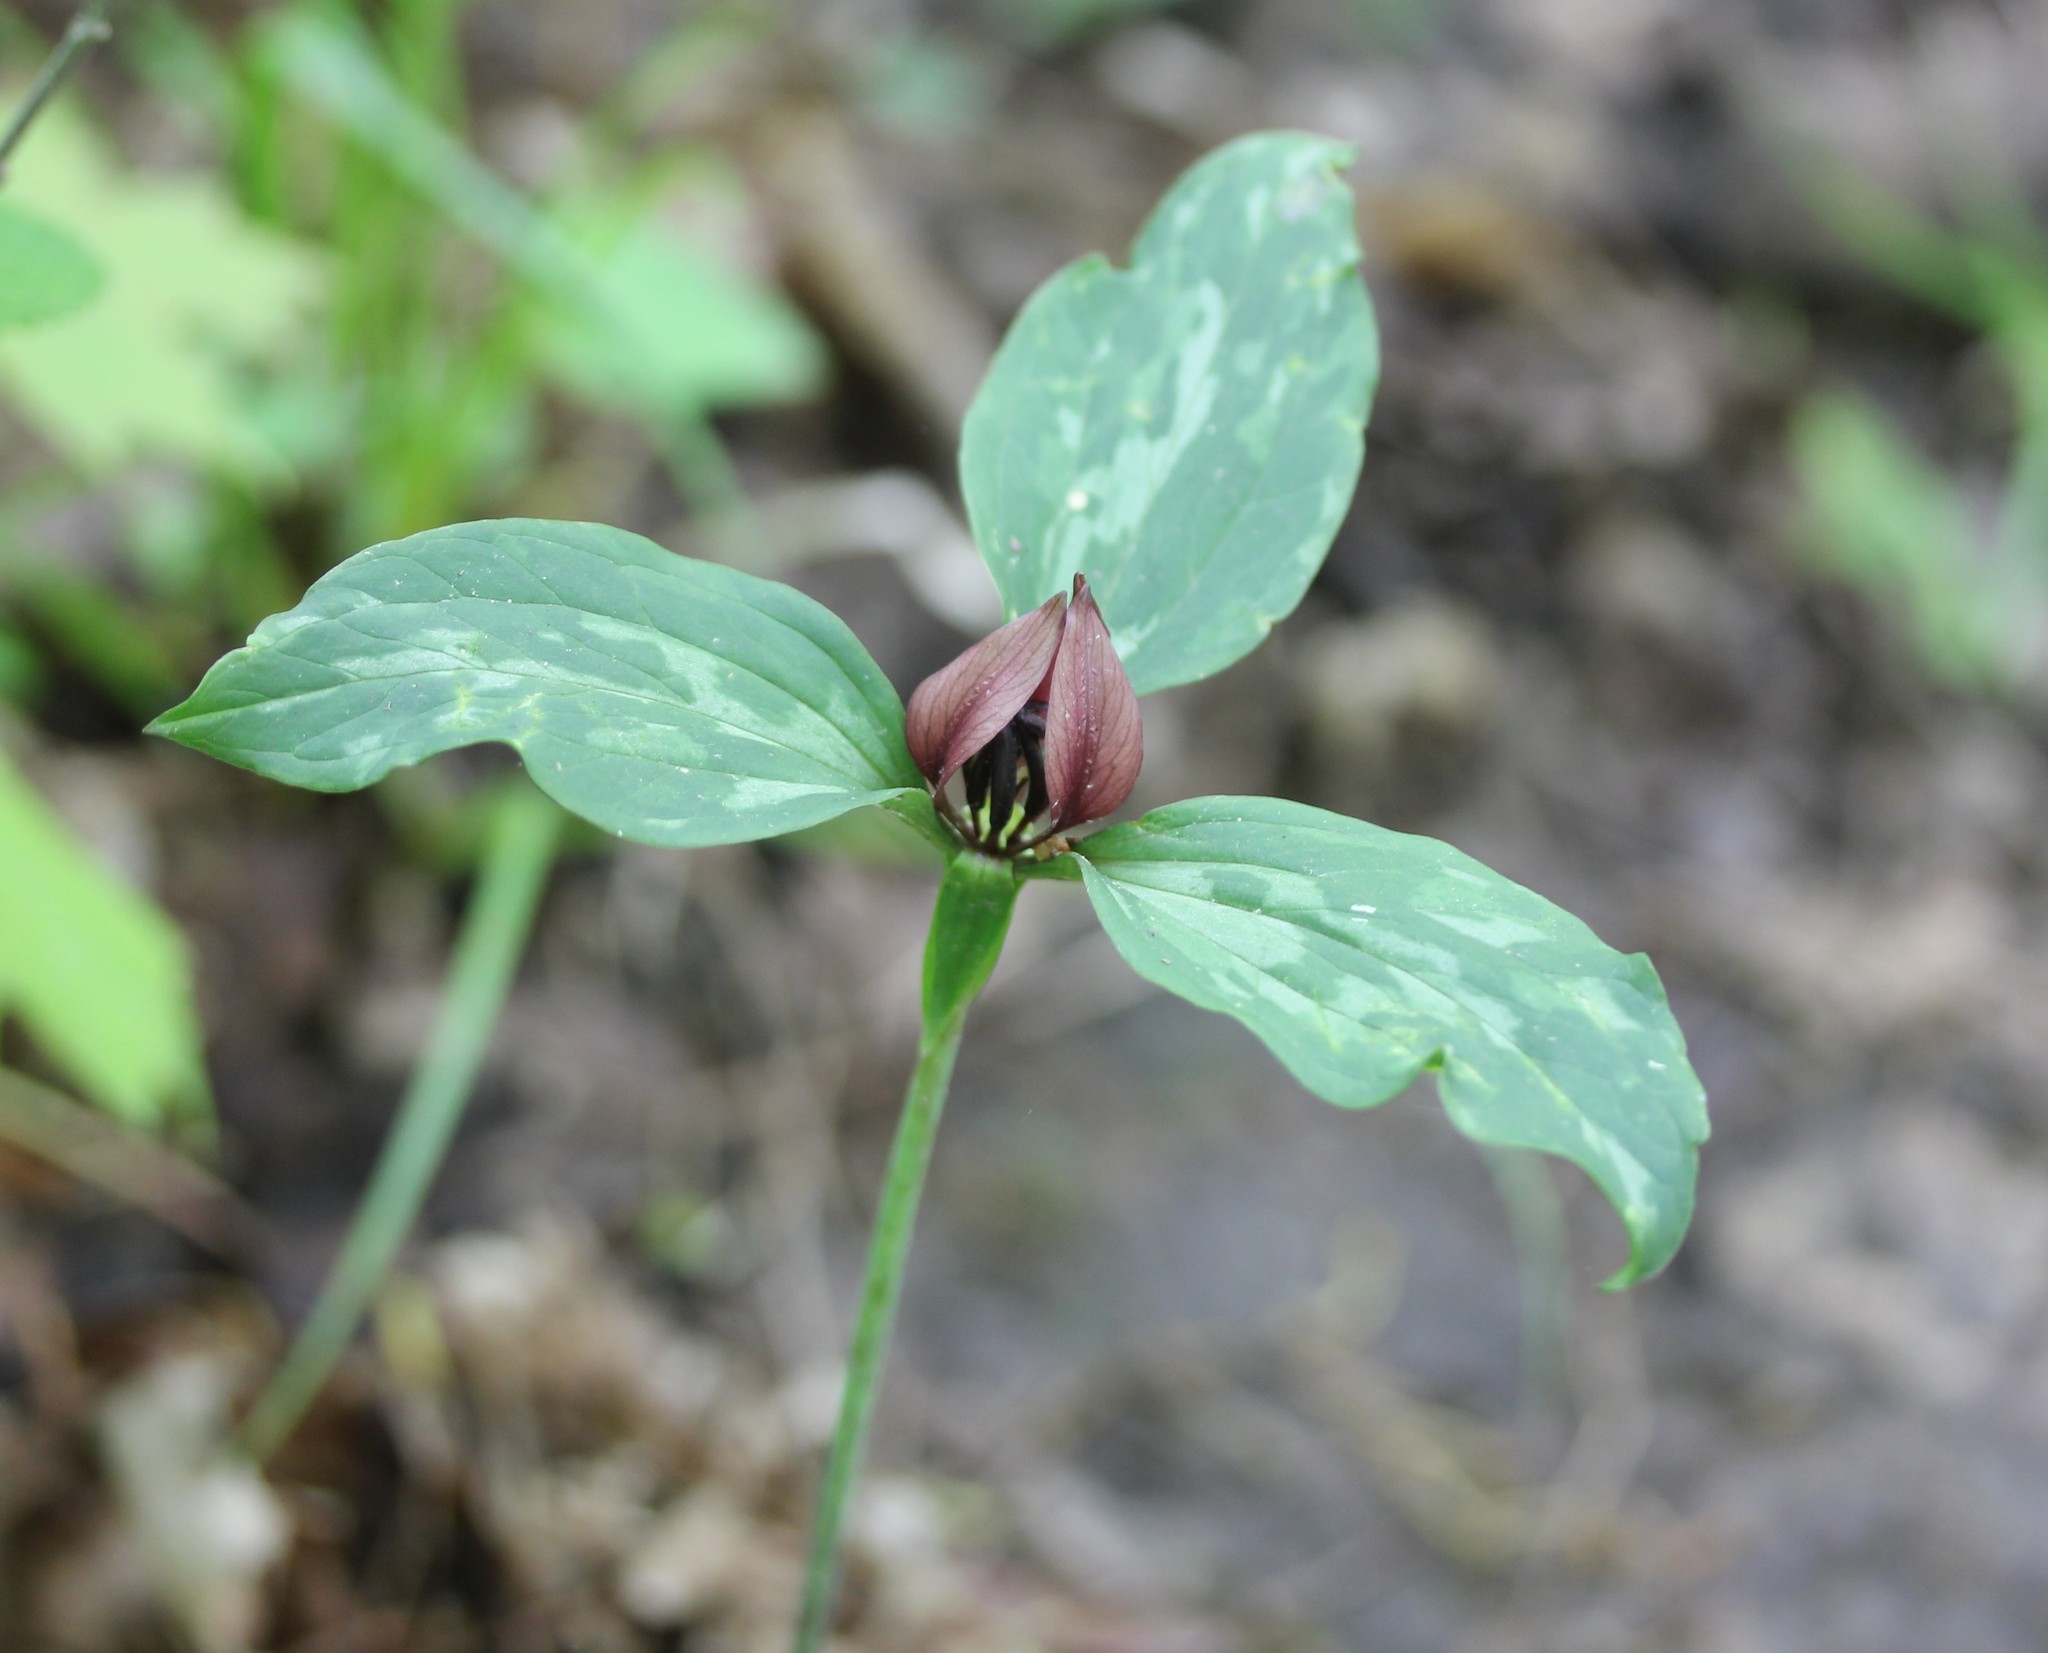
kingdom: Plantae
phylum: Tracheophyta
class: Liliopsida
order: Liliales
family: Melanthiaceae
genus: Trillium
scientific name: Trillium recurvatum
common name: Bloody butcher
